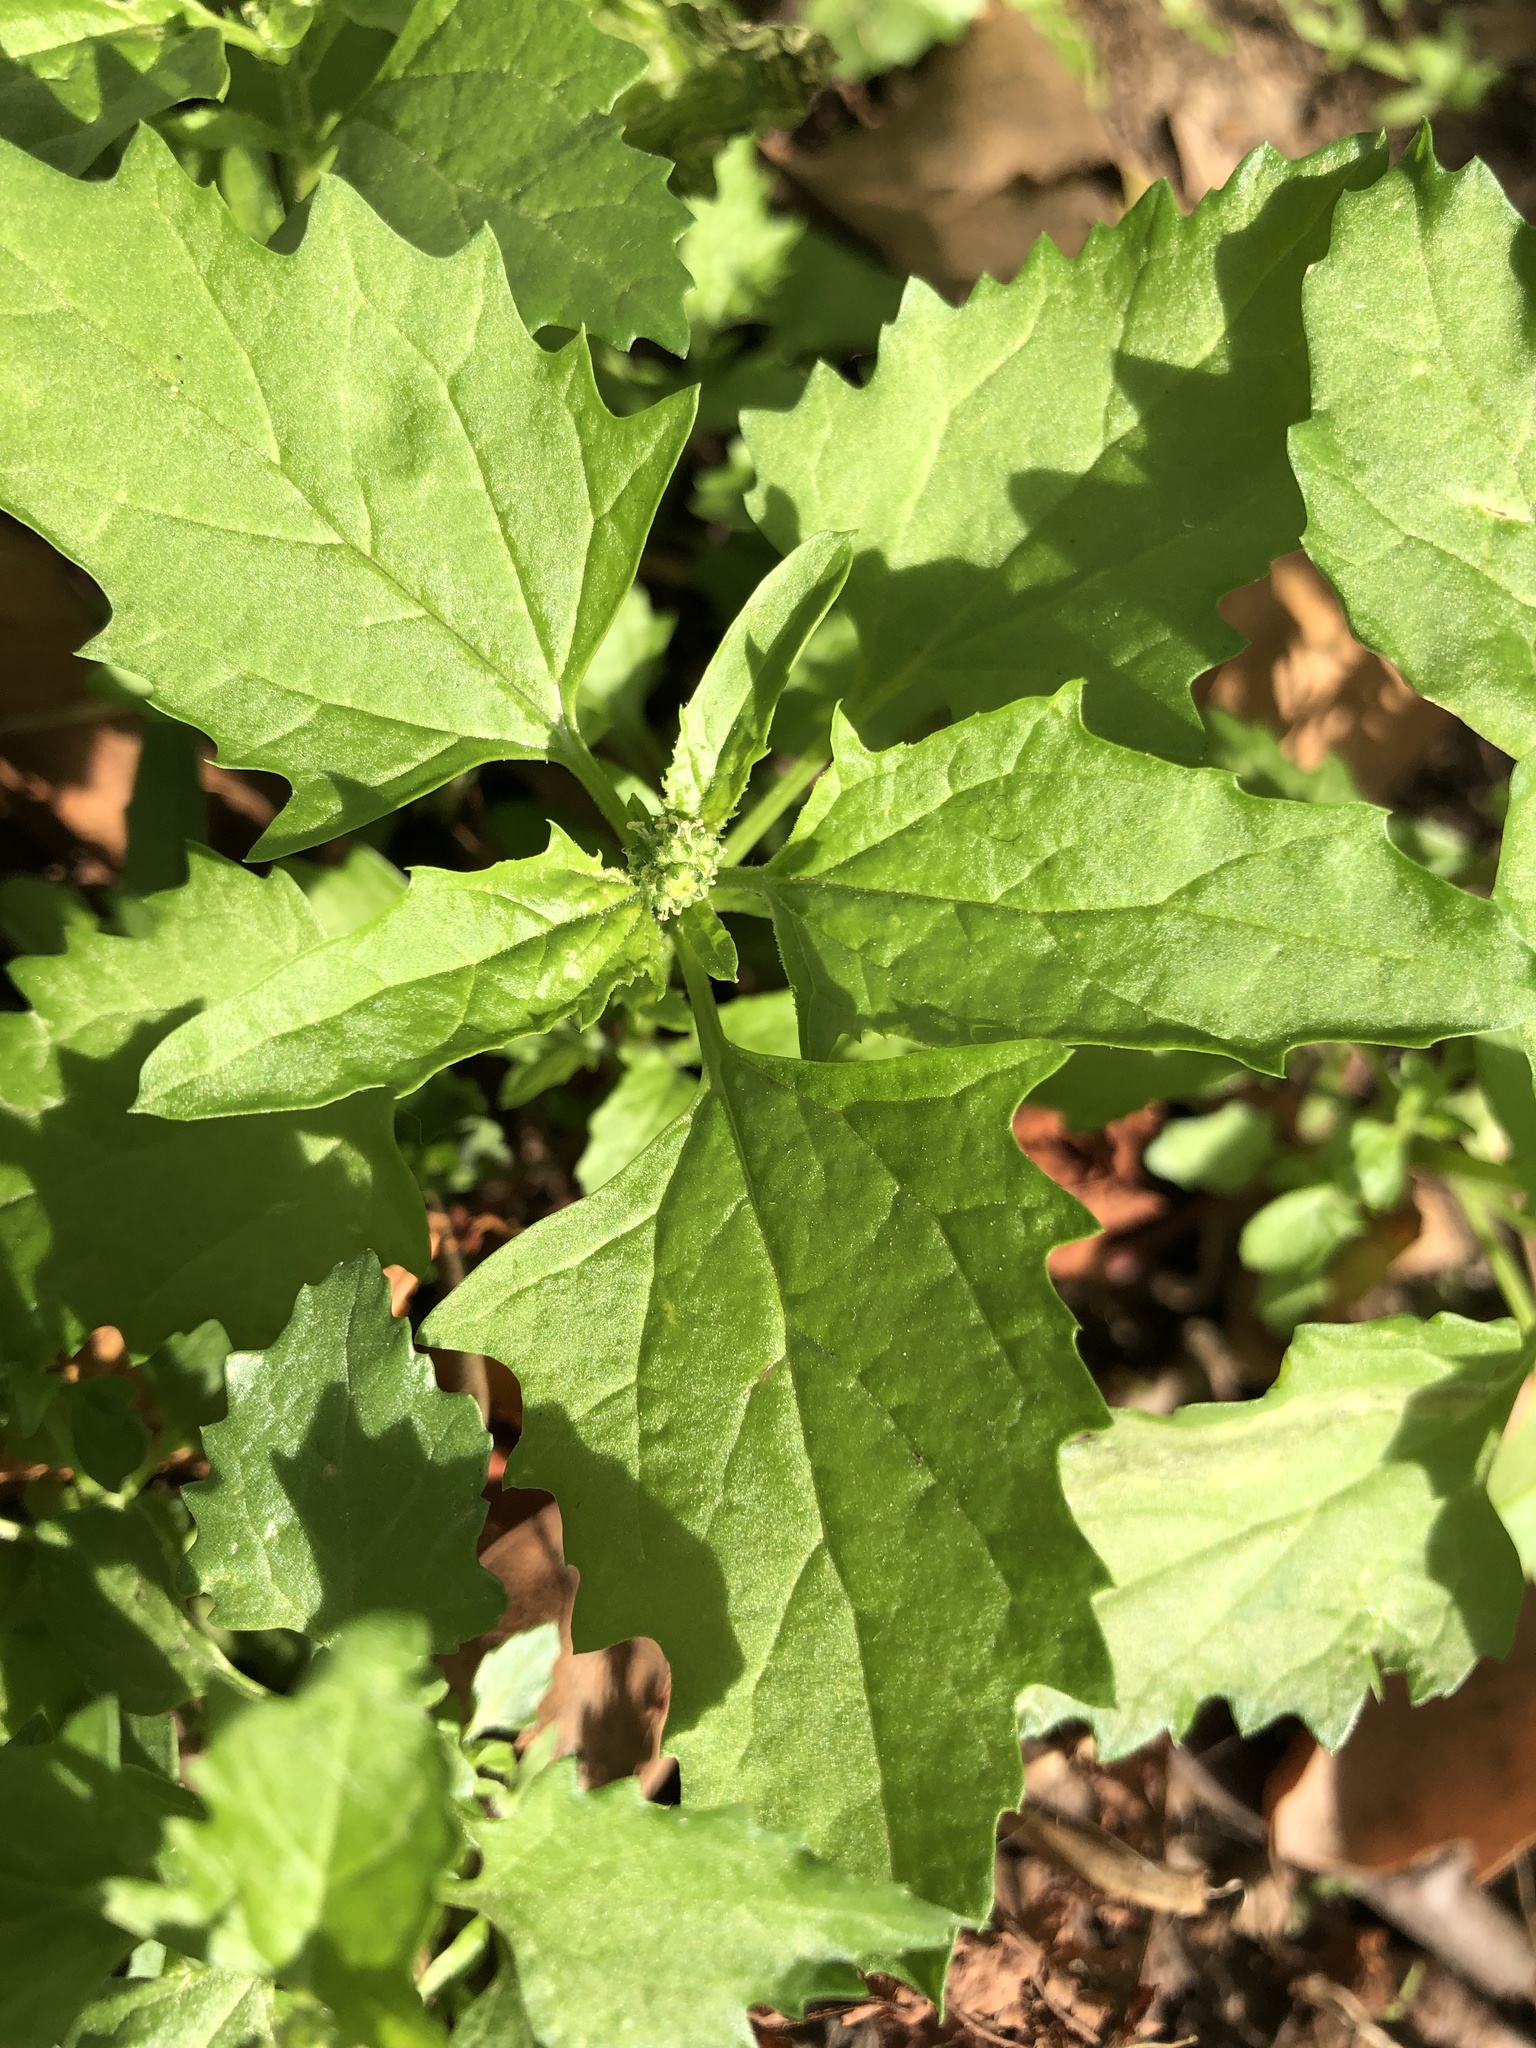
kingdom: Plantae
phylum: Tracheophyta
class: Magnoliopsida
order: Caryophyllales
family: Amaranthaceae
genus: Chenopodium
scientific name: Chenopodium album
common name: Fat-hen
